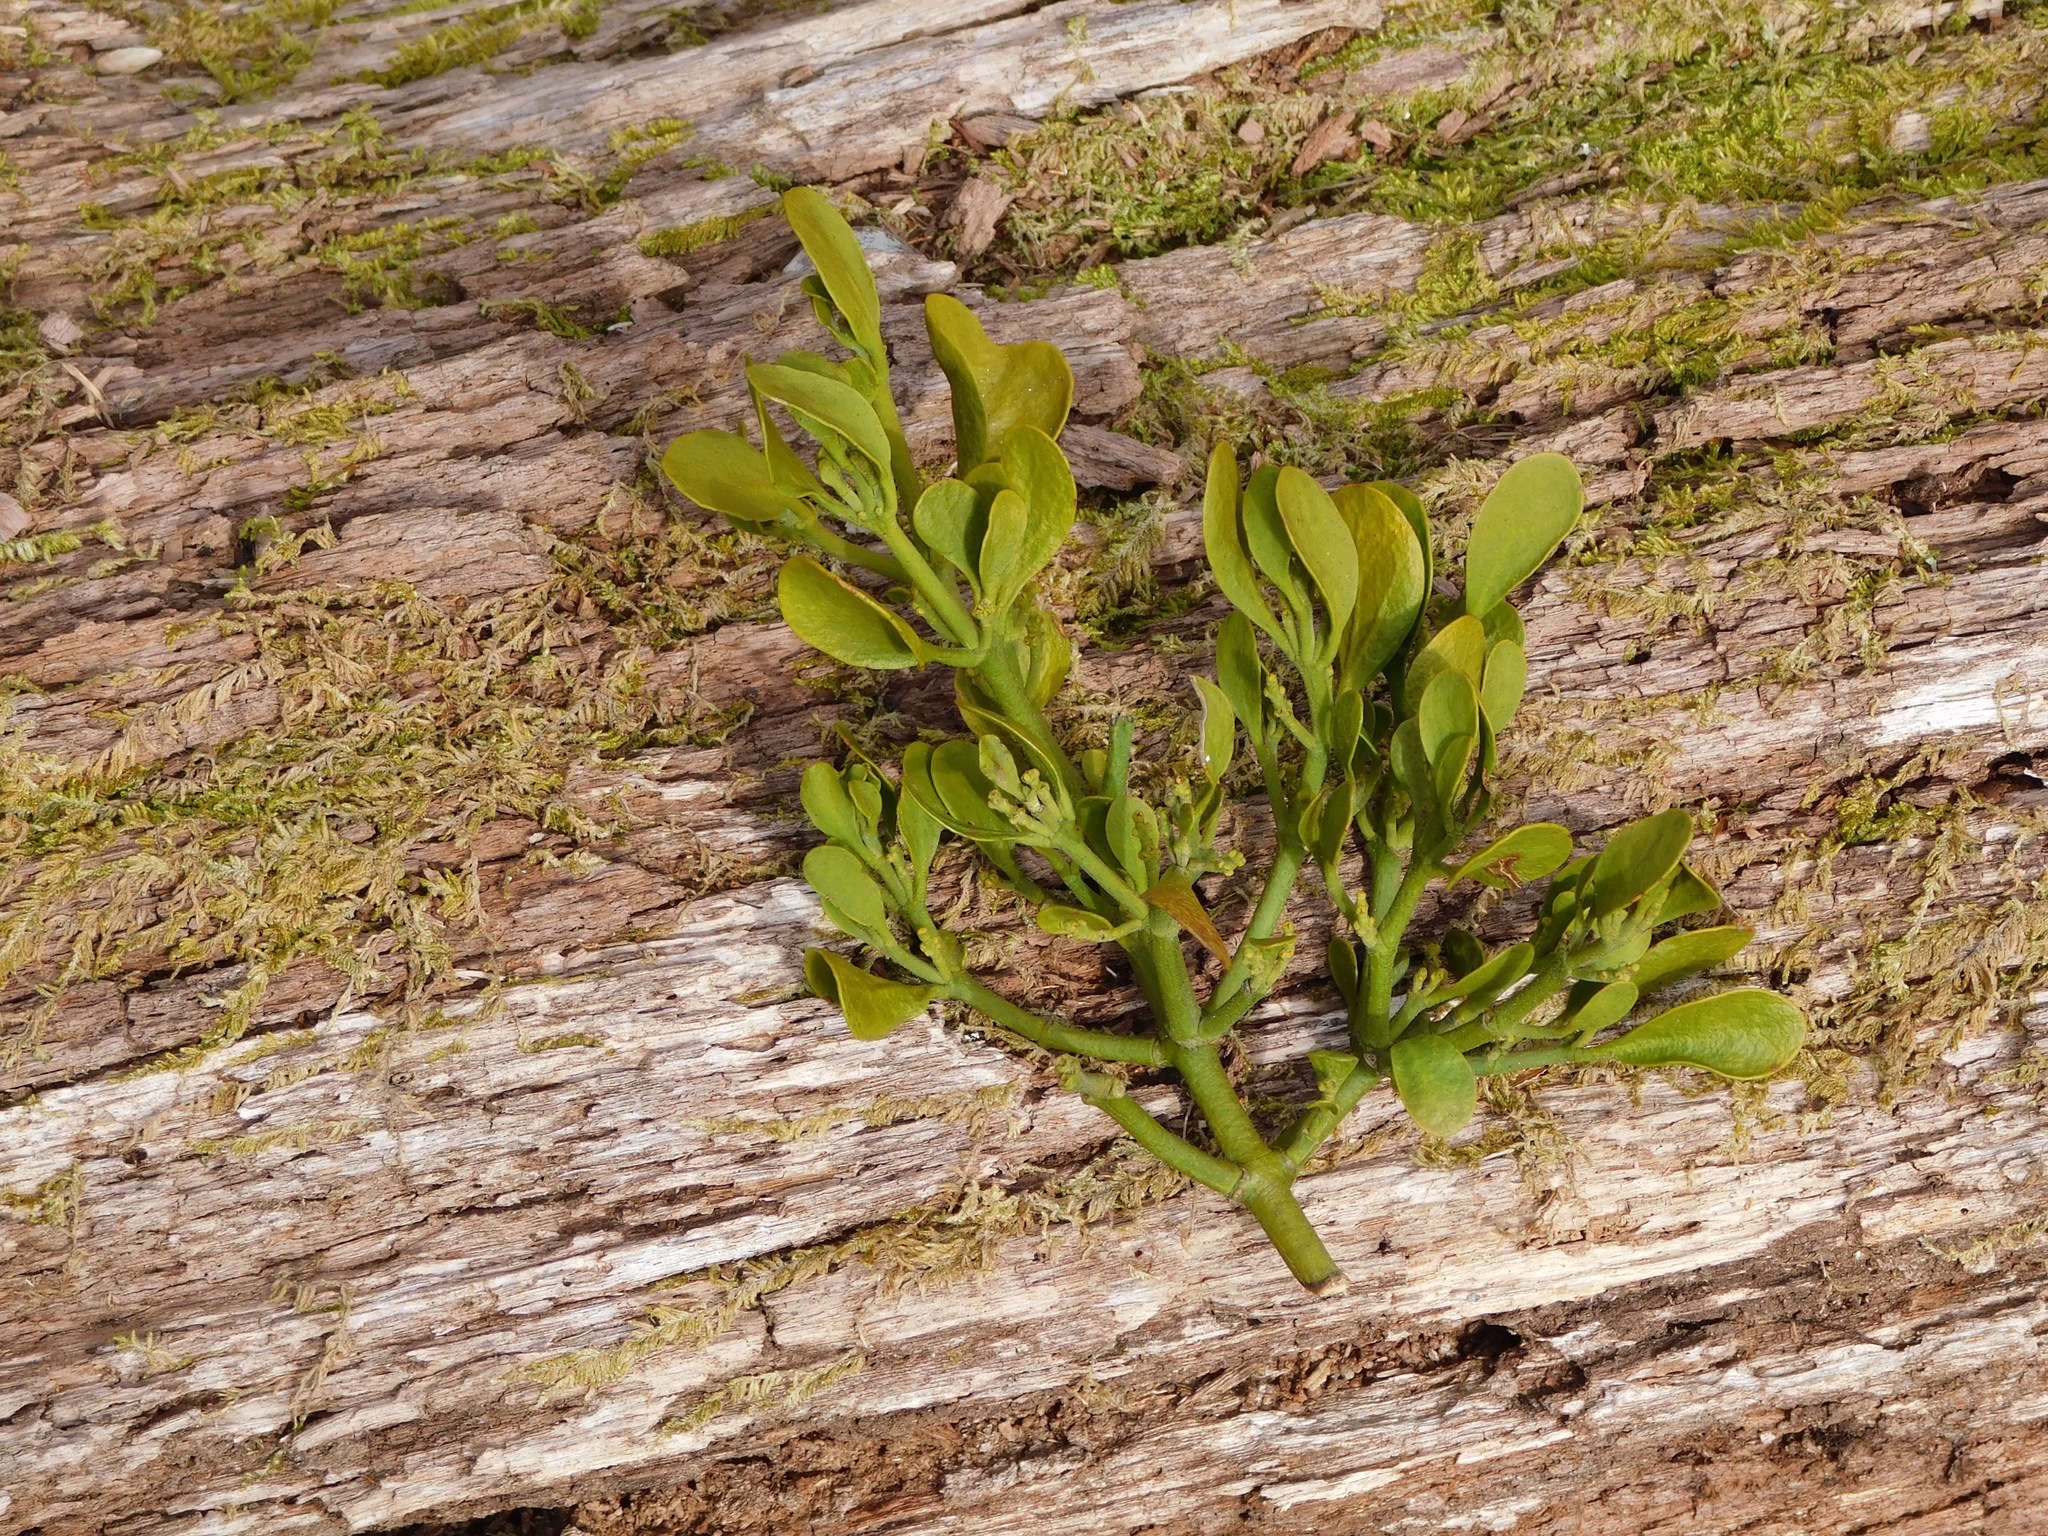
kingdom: Plantae
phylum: Tracheophyta
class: Magnoliopsida
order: Santalales
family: Viscaceae
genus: Phoradendron
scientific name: Phoradendron leucarpum
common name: Pacific mistletoe
